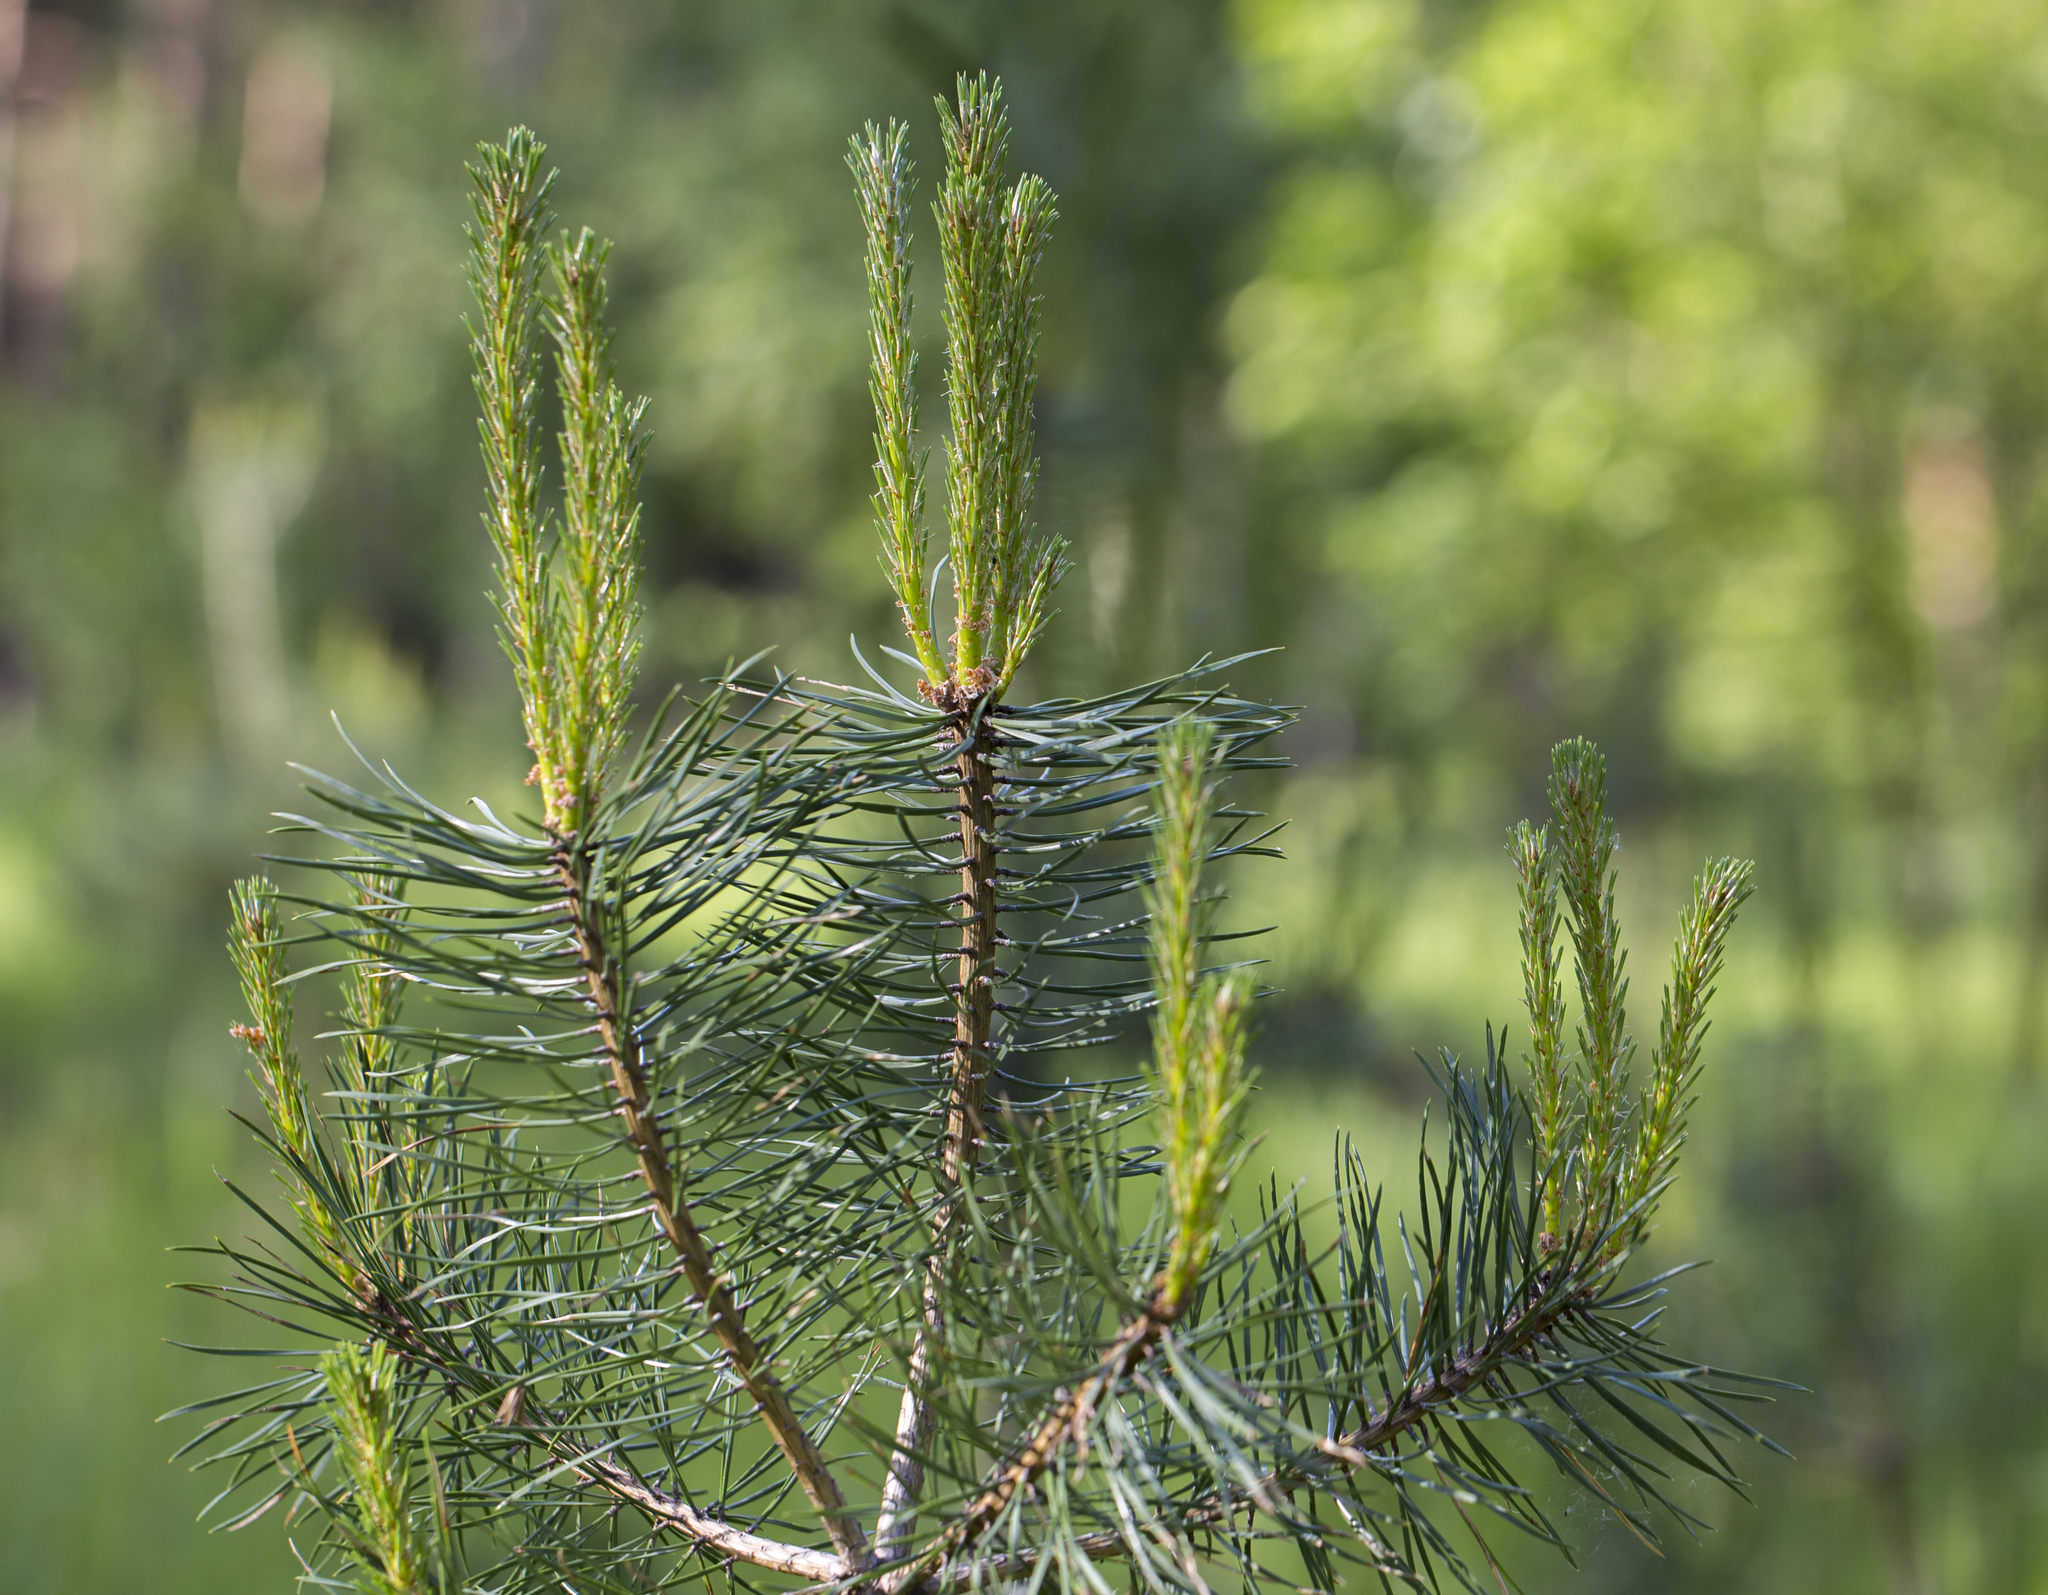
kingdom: Plantae
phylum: Tracheophyta
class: Pinopsida
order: Pinales
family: Pinaceae
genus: Pinus
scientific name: Pinus sylvestris
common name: Scots pine
